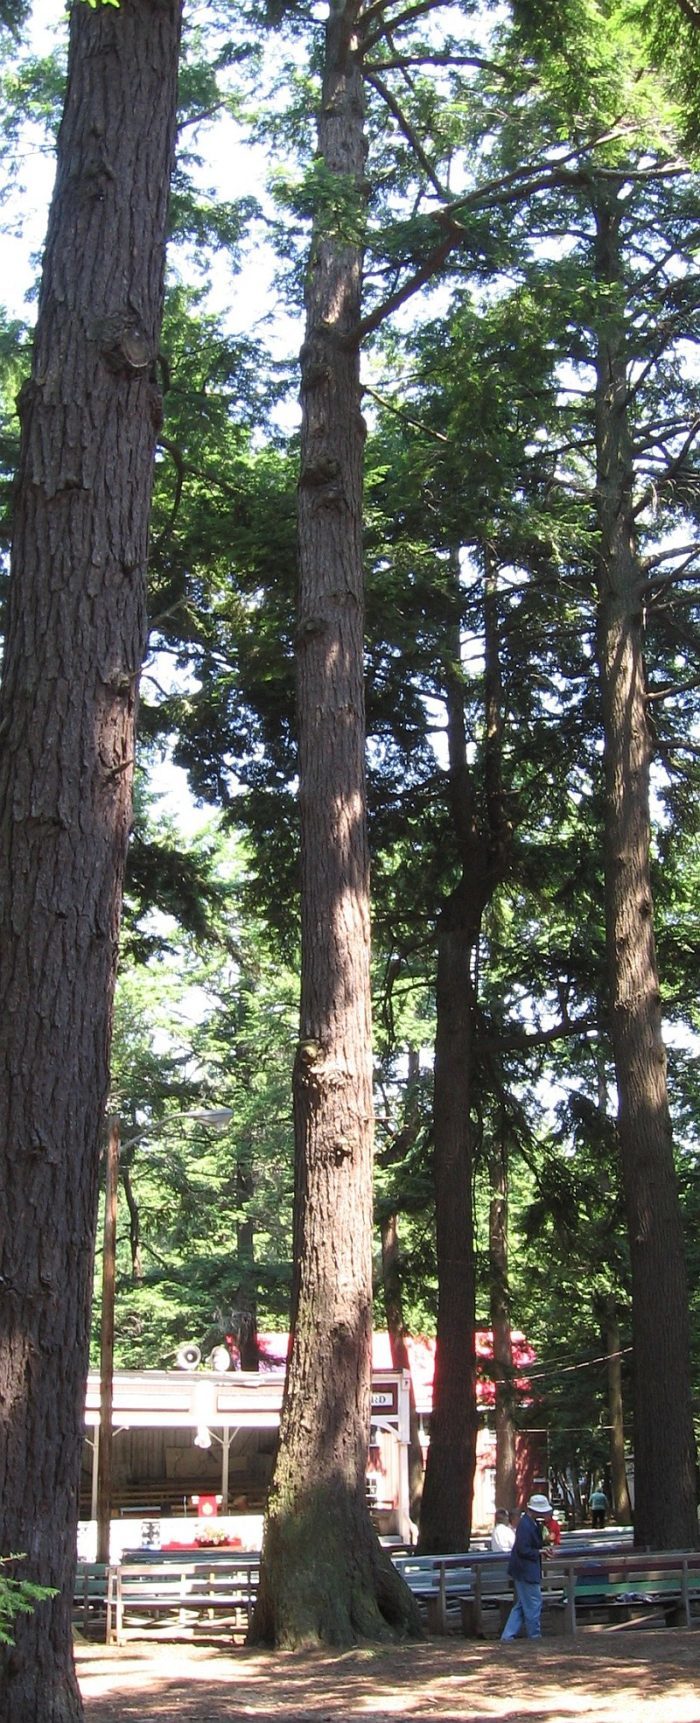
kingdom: Plantae
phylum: Tracheophyta
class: Pinopsida
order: Pinales
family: Pinaceae
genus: Tsuga
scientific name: Tsuga canadensis
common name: Eastern hemlock
